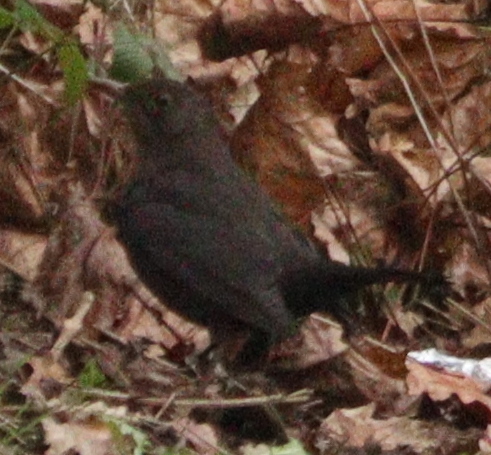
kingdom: Animalia
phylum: Chordata
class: Aves
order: Passeriformes
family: Turdidae
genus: Turdus
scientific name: Turdus merula
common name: Common blackbird
